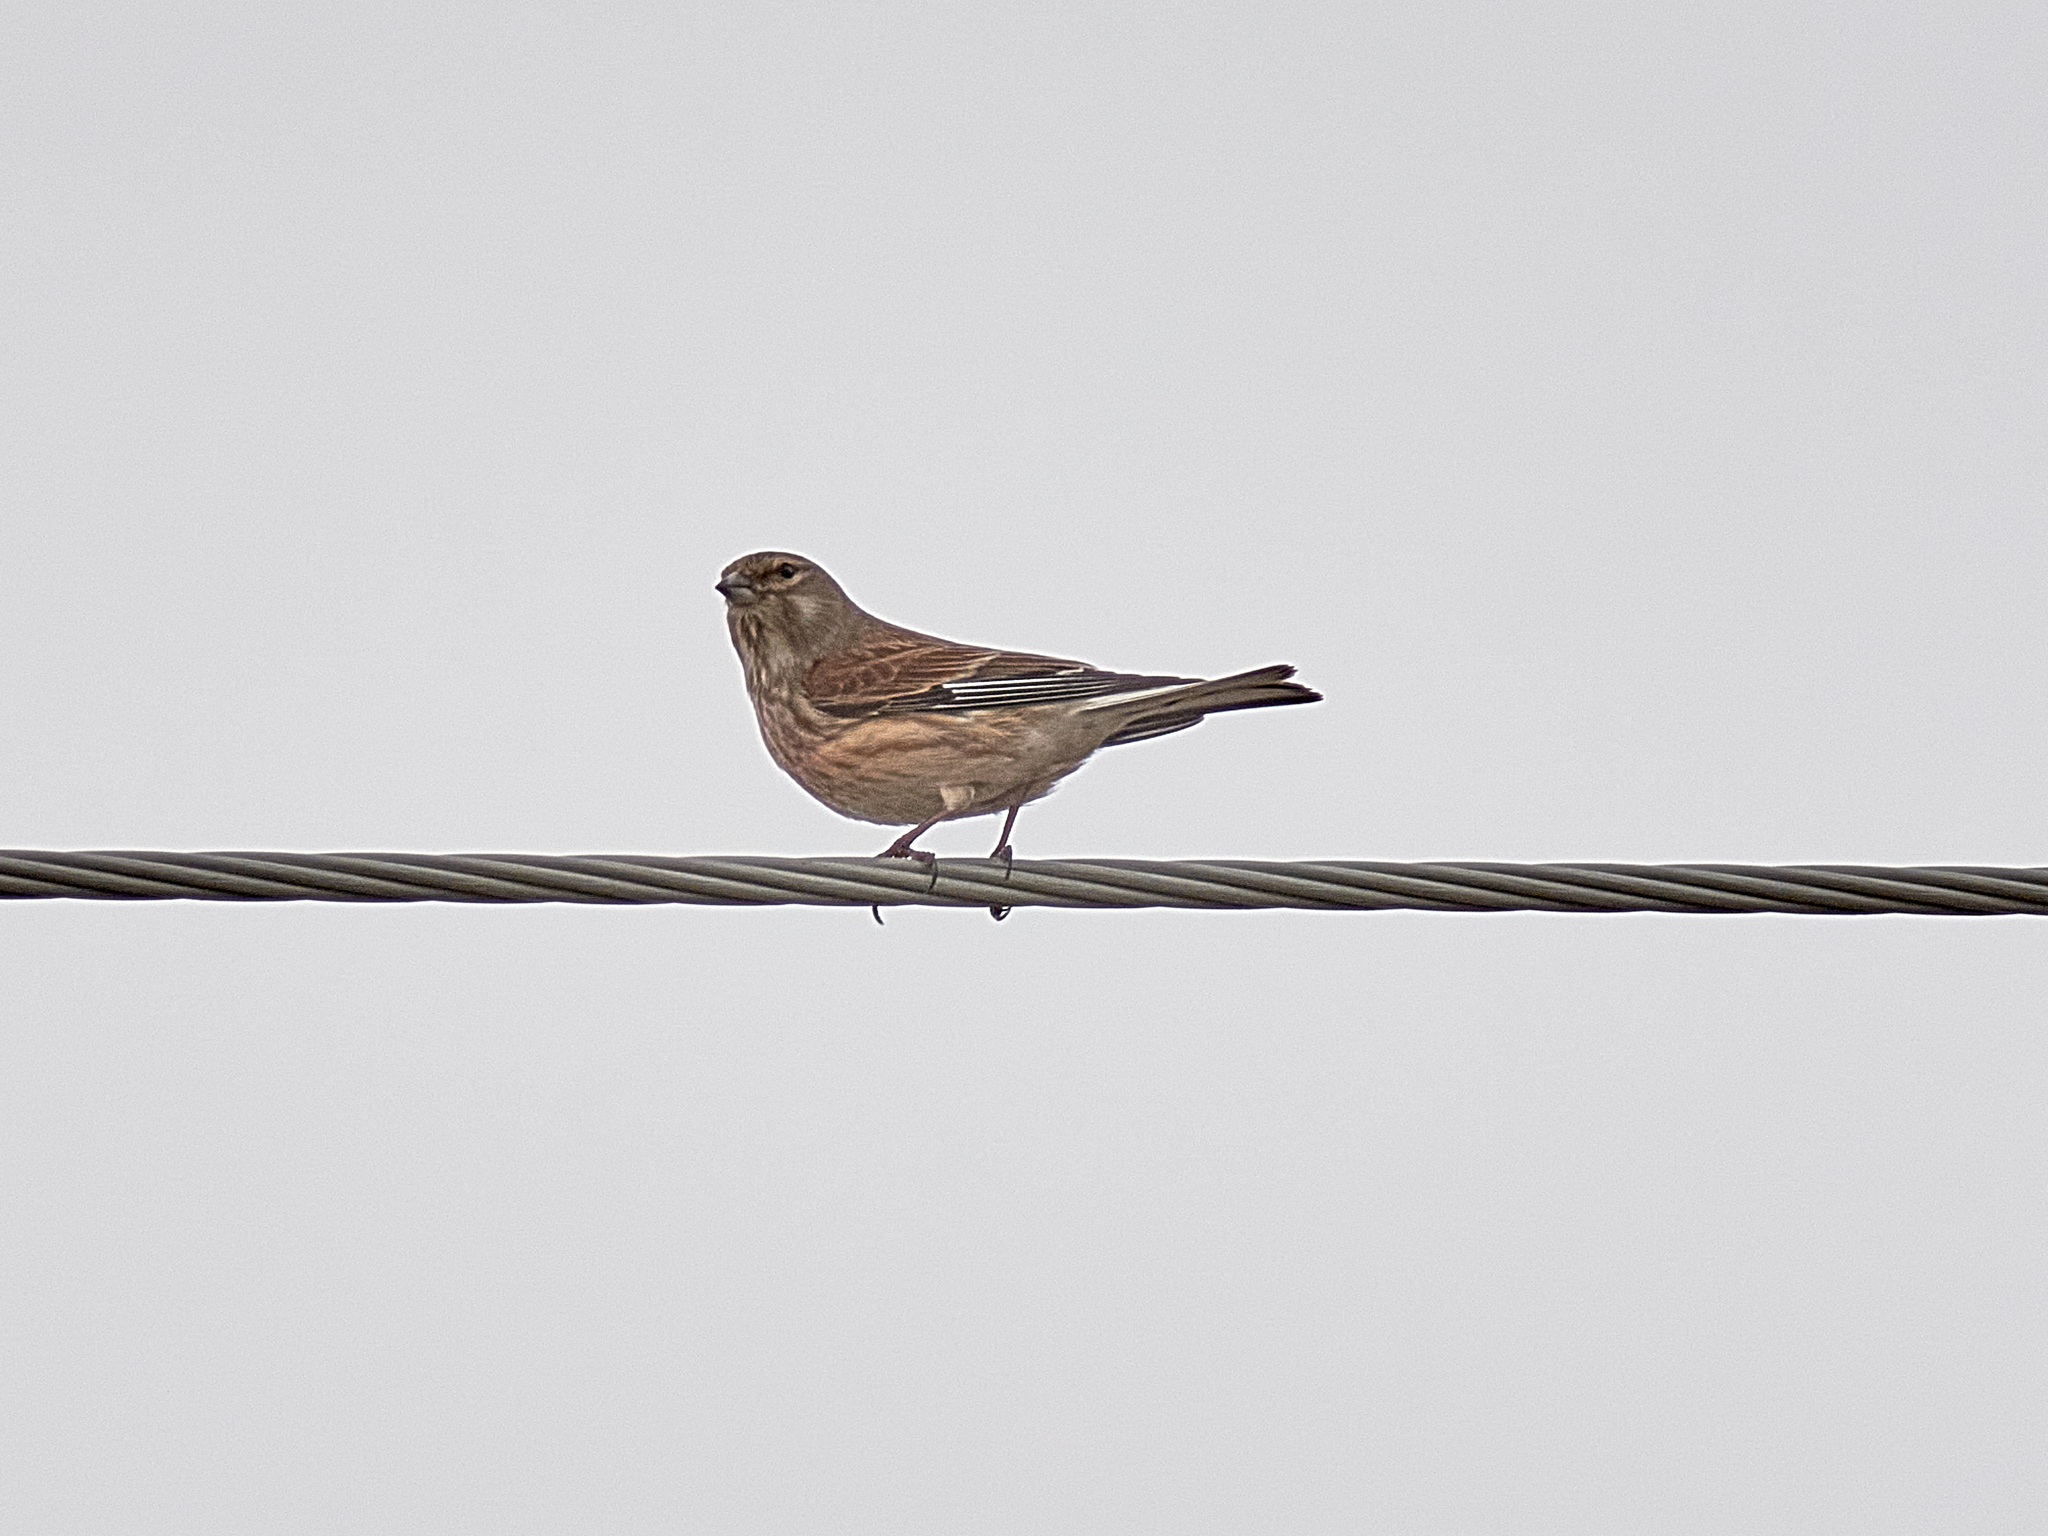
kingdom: Animalia
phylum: Chordata
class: Aves
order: Passeriformes
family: Fringillidae
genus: Linaria
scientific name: Linaria cannabina
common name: Common linnet
